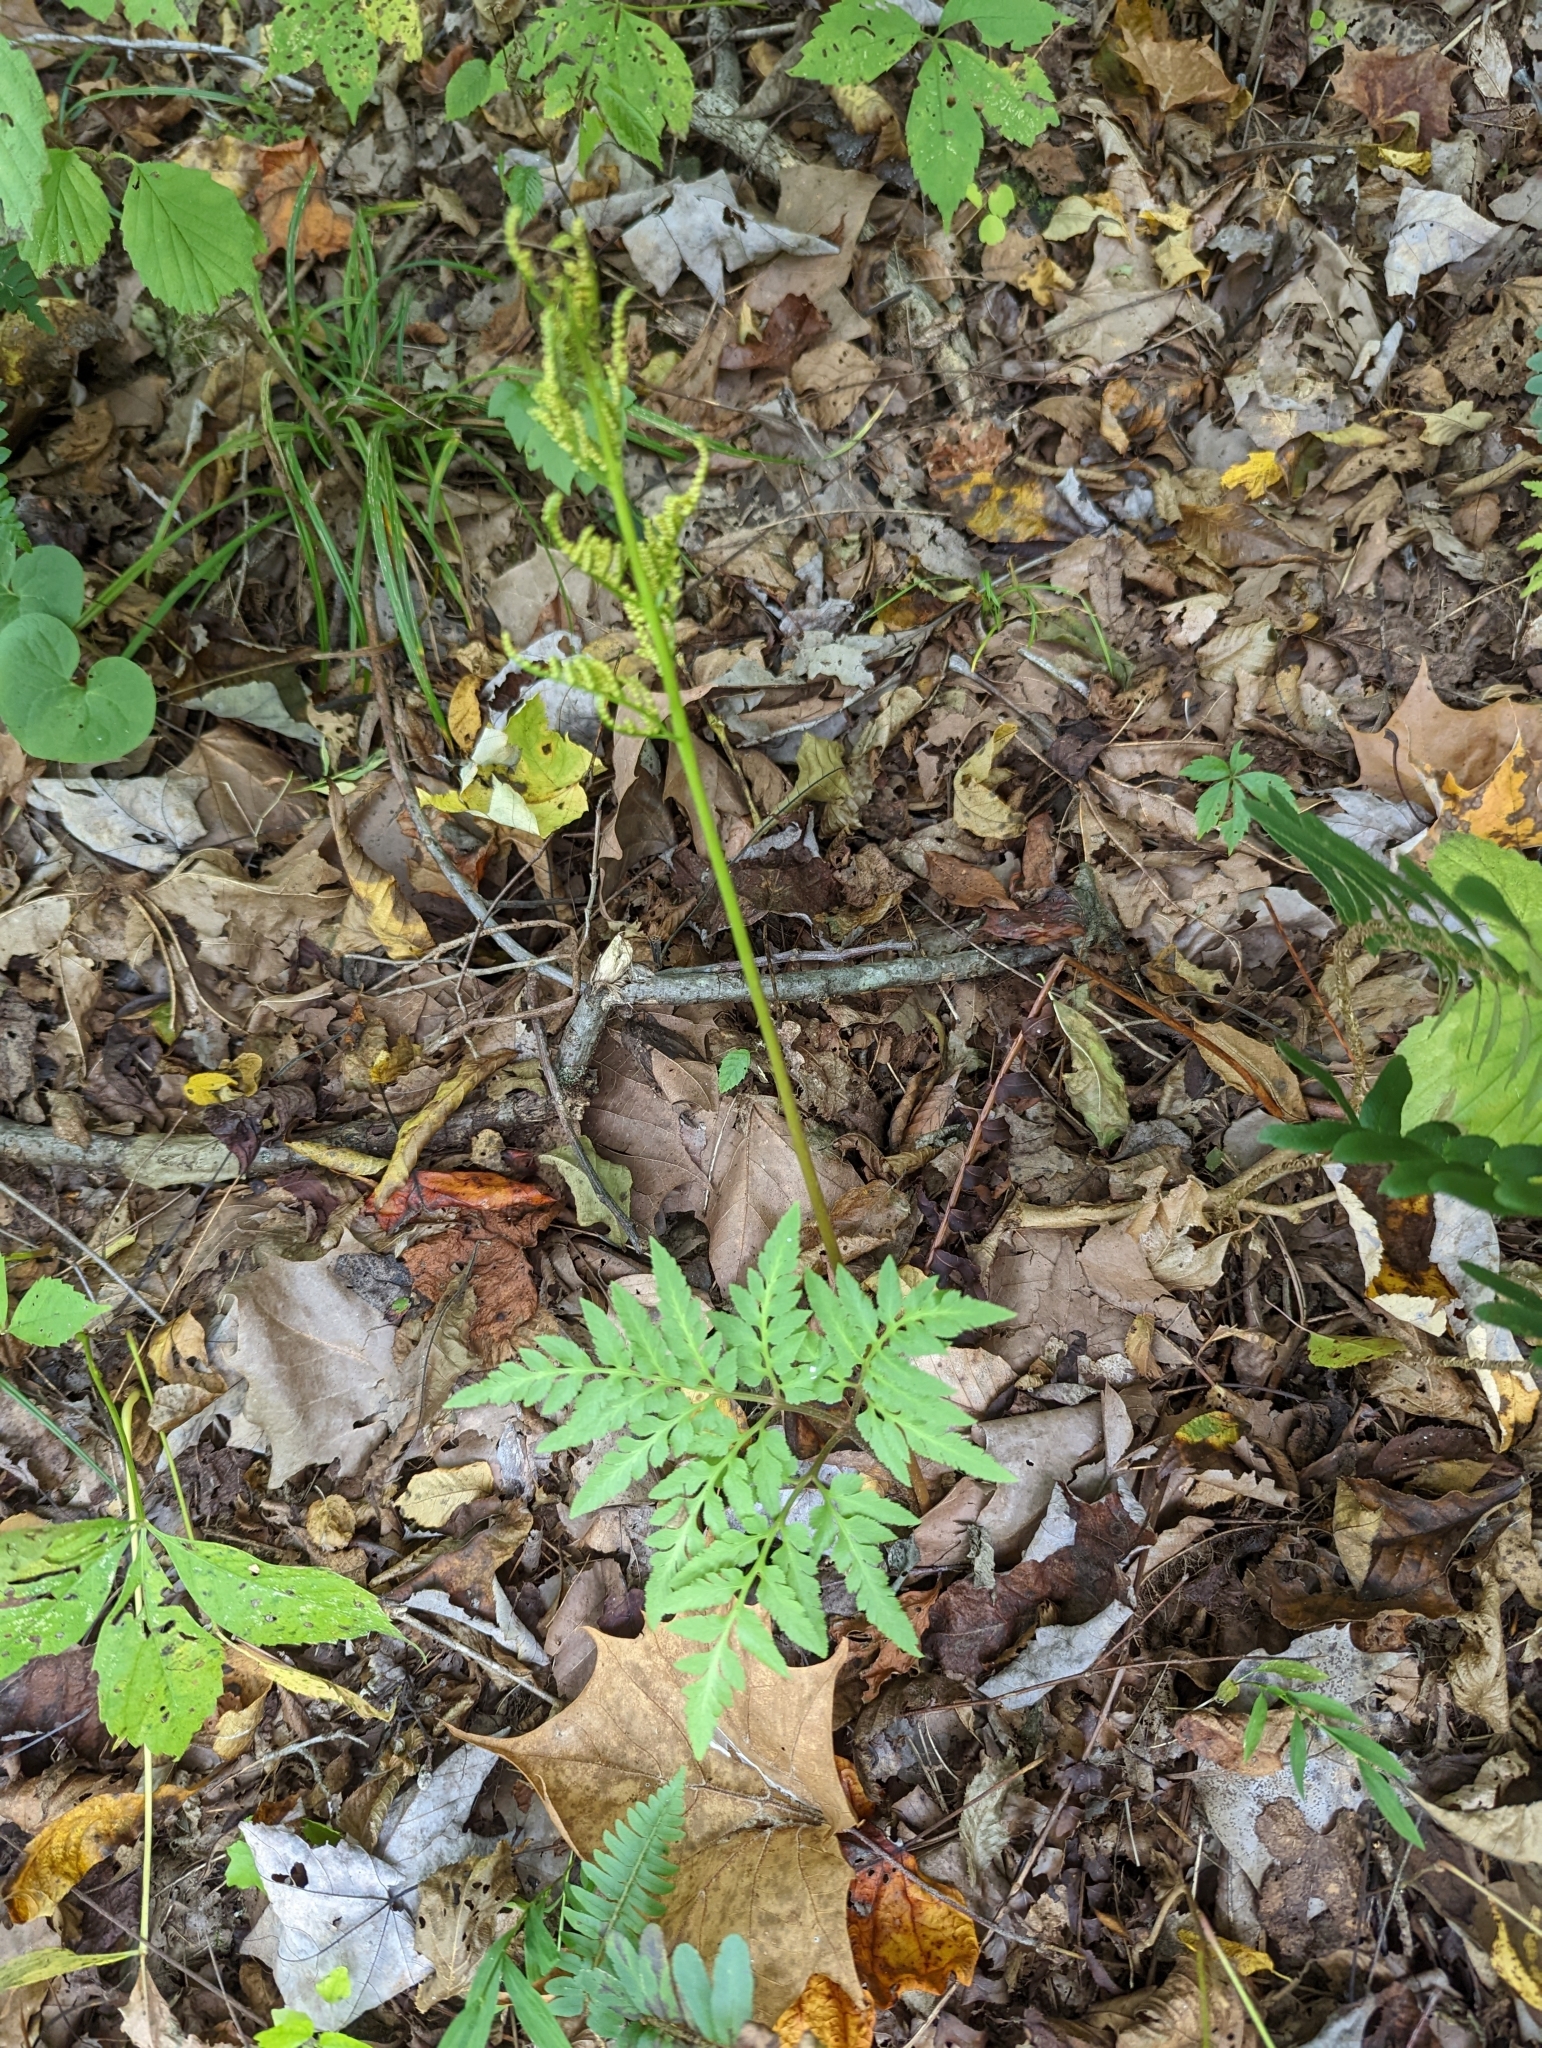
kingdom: Plantae
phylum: Tracheophyta
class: Polypodiopsida
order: Ophioglossales
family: Ophioglossaceae
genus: Sceptridium
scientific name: Sceptridium dissectum
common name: Cut-leaved grapefern
